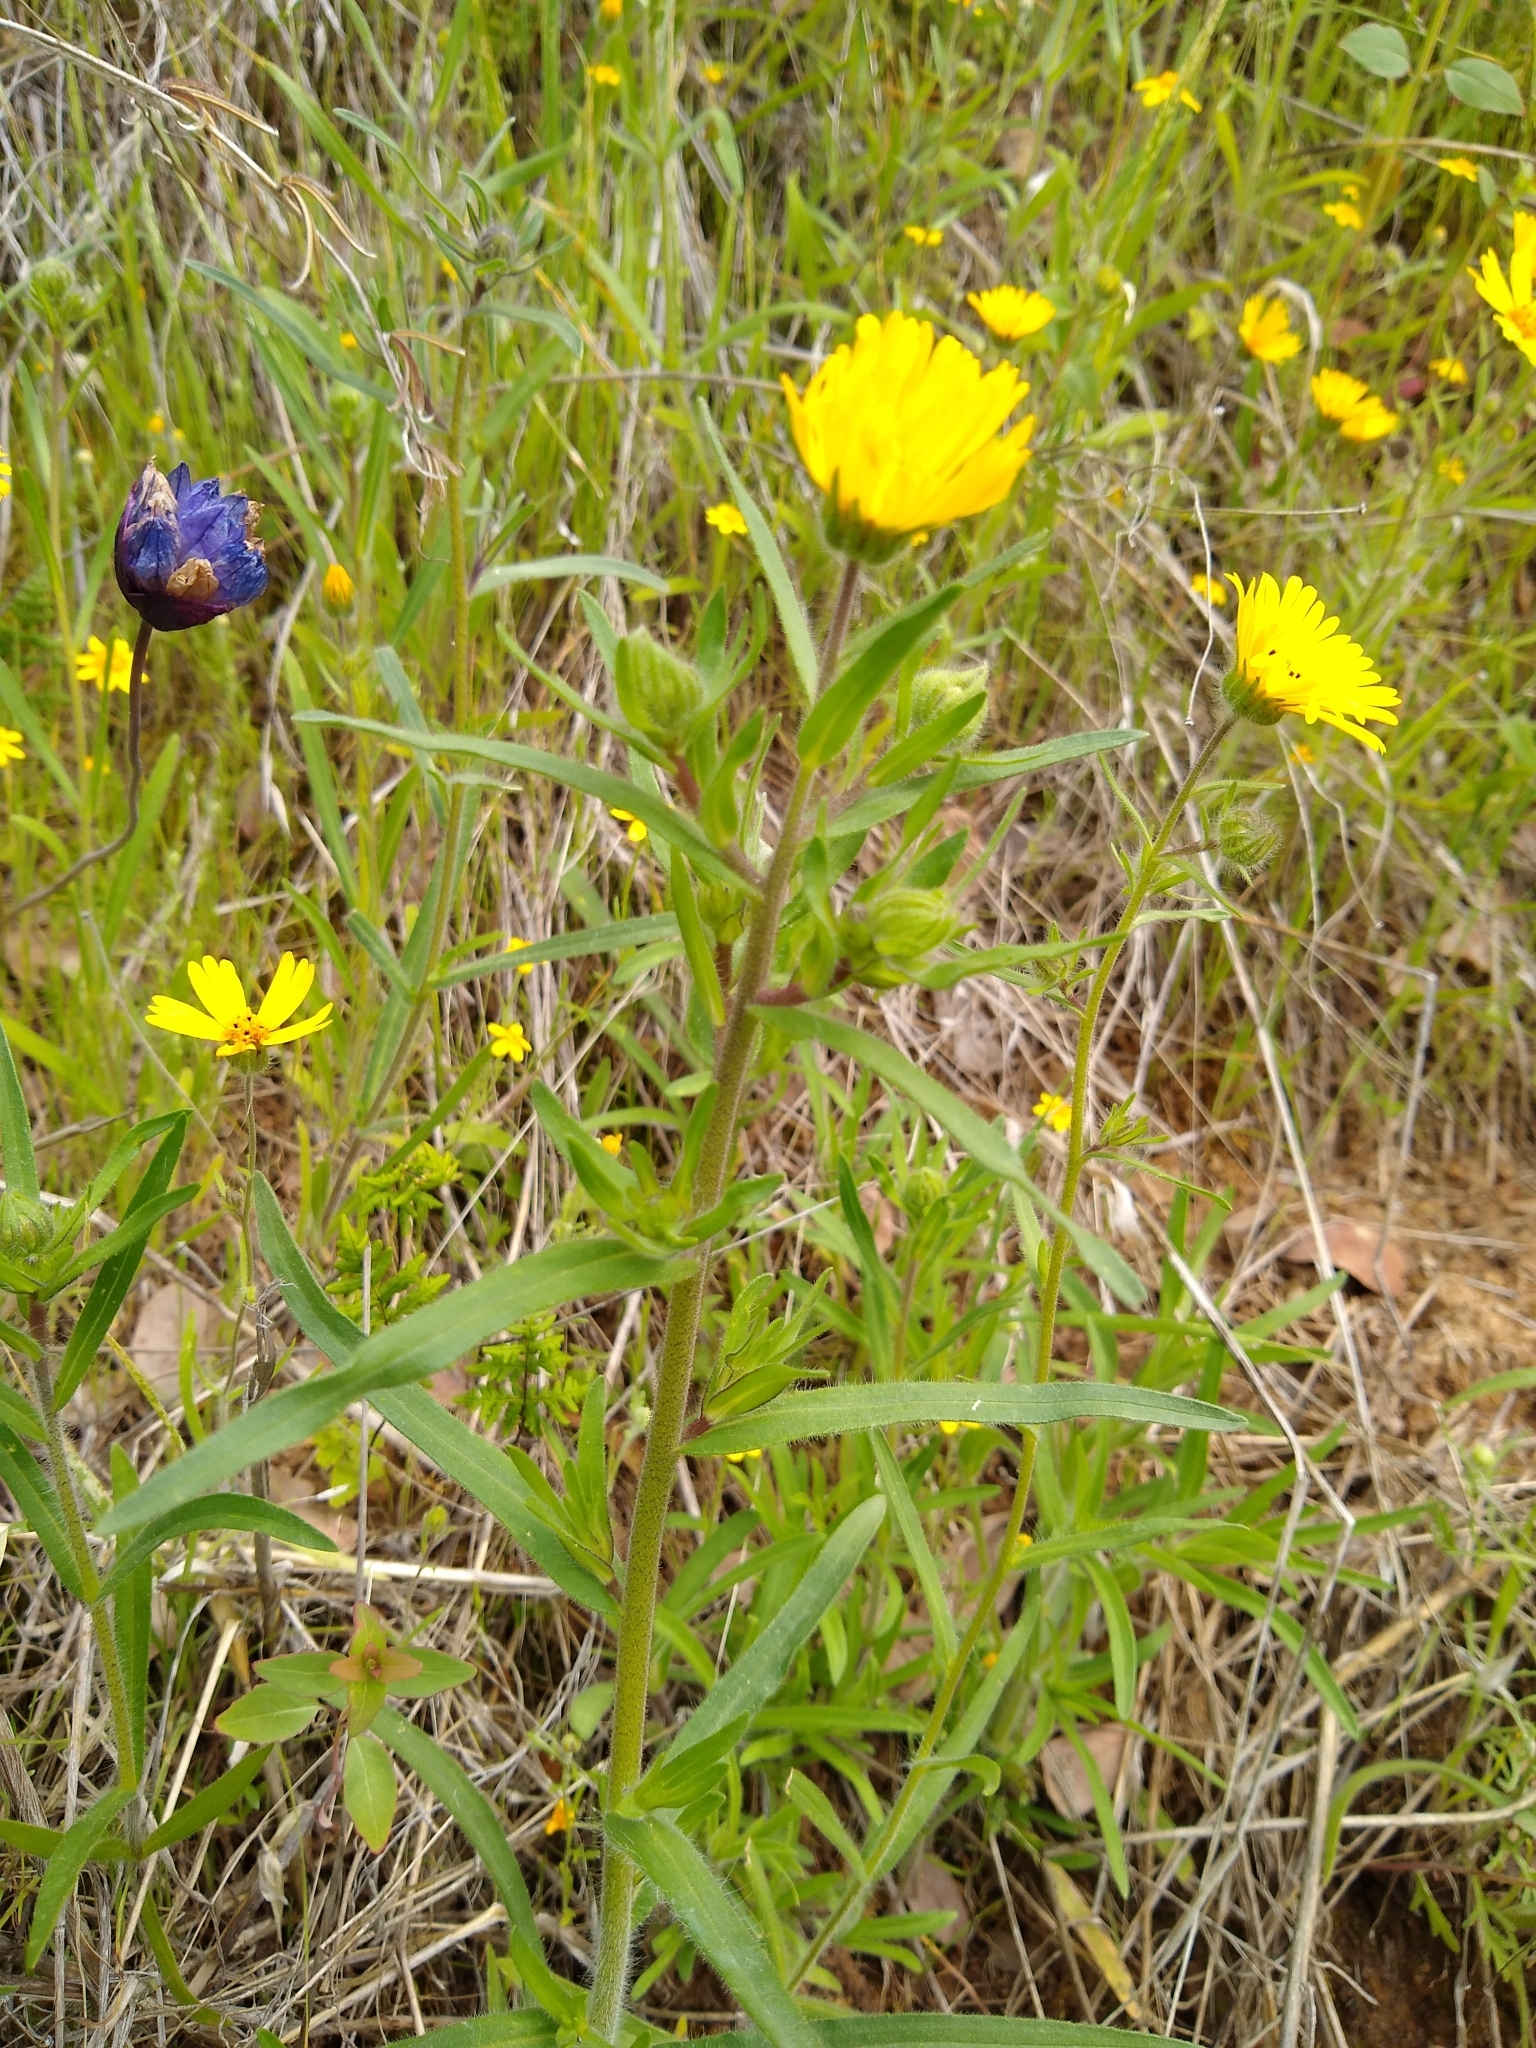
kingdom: Plantae
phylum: Tracheophyta
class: Magnoliopsida
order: Asterales
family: Asteraceae
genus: Madia
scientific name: Madia elegans
